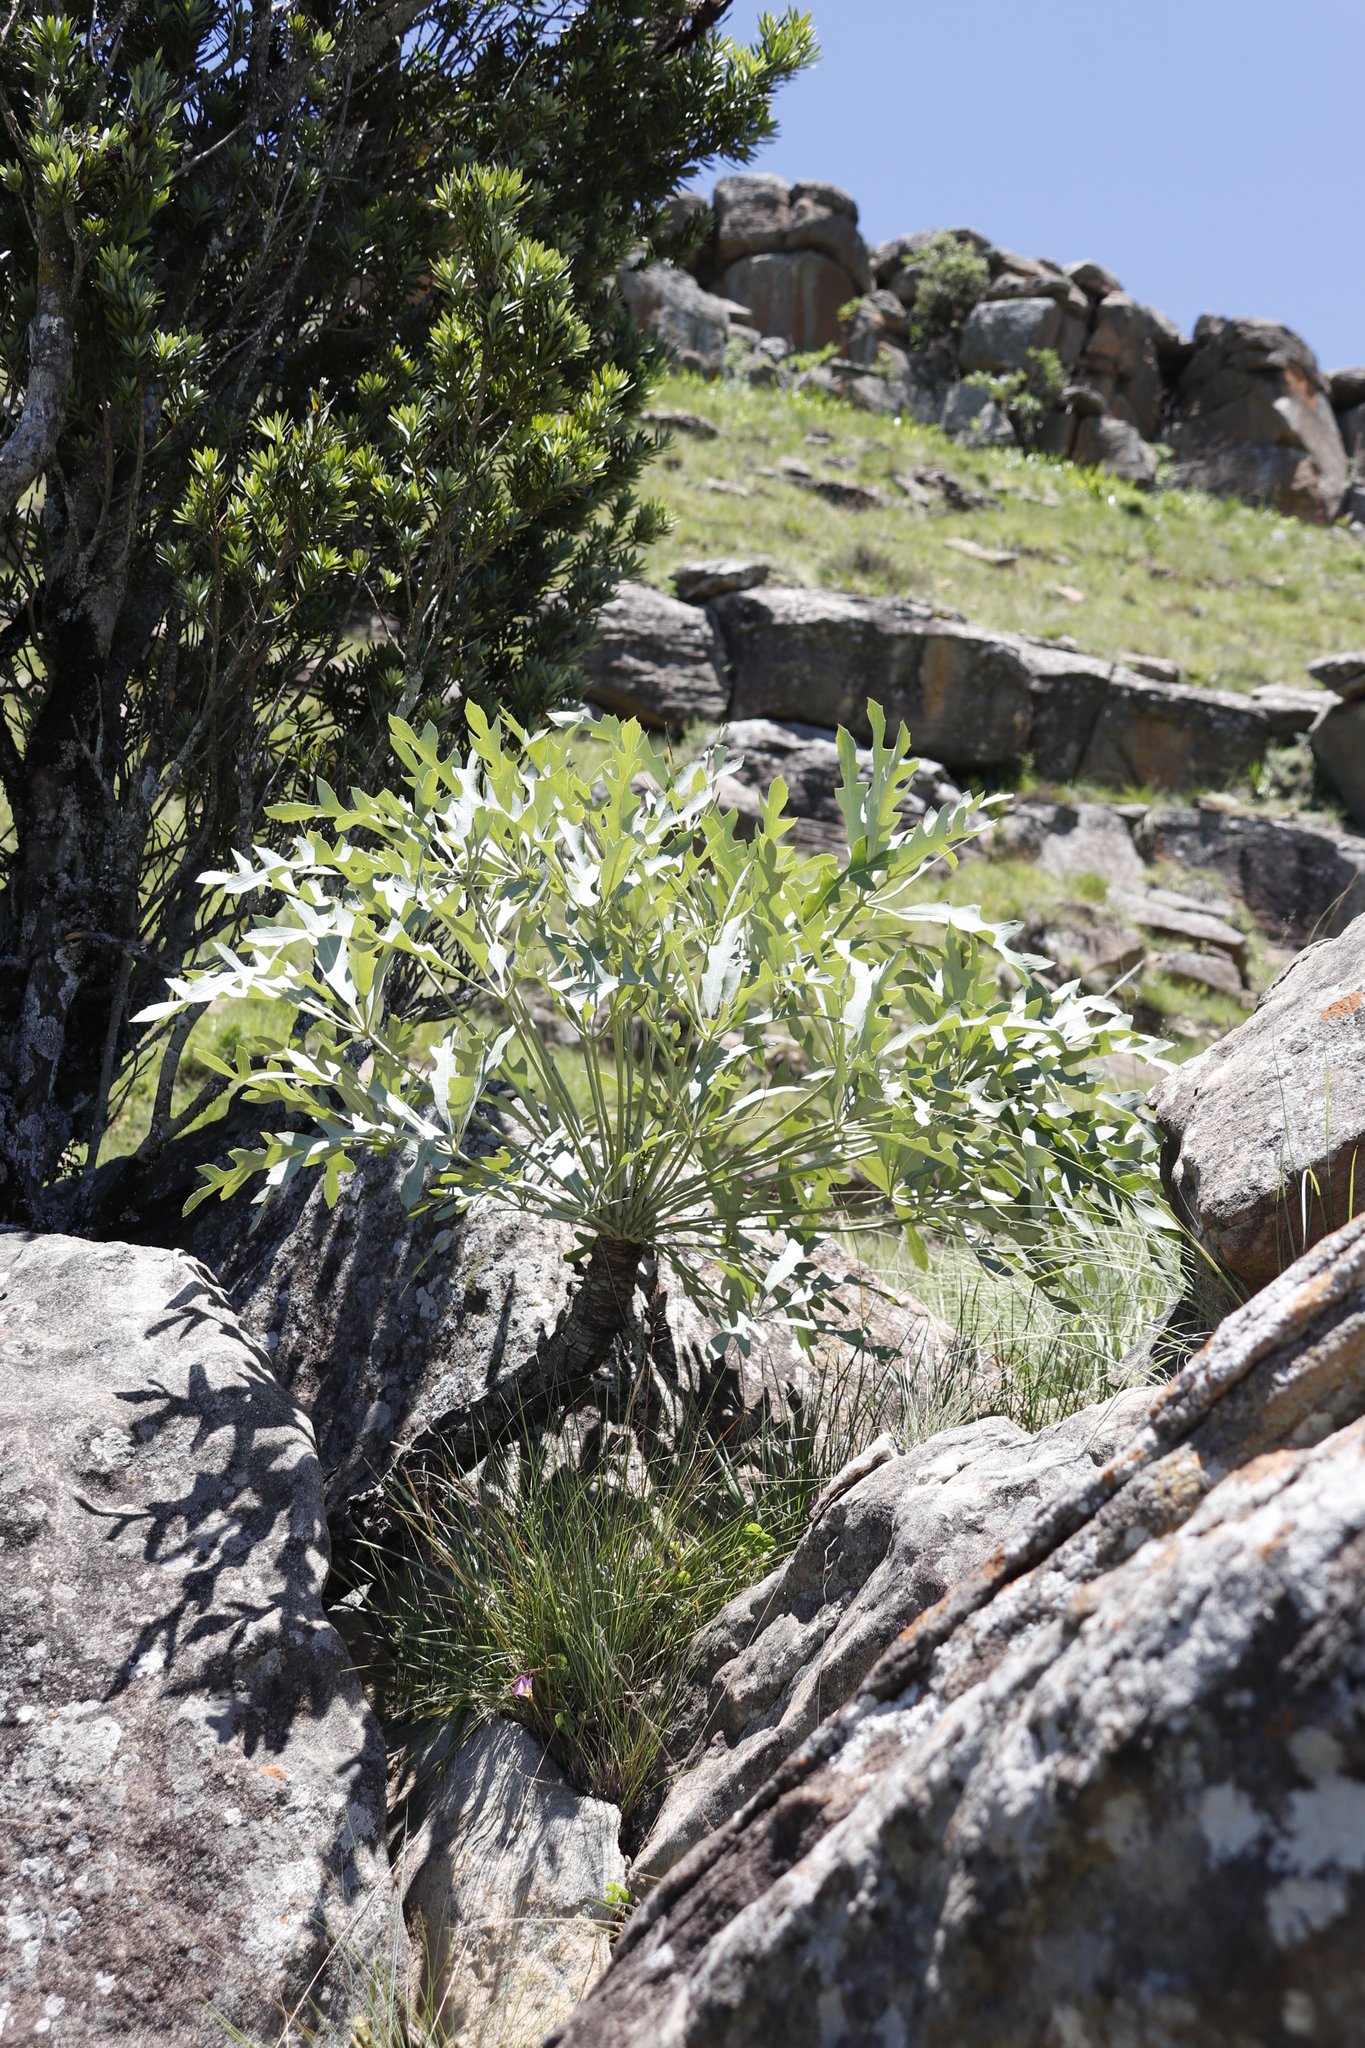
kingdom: Plantae
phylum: Tracheophyta
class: Magnoliopsida
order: Apiales
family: Araliaceae
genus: Cussonia
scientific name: Cussonia paniculata
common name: Cabbagetree
